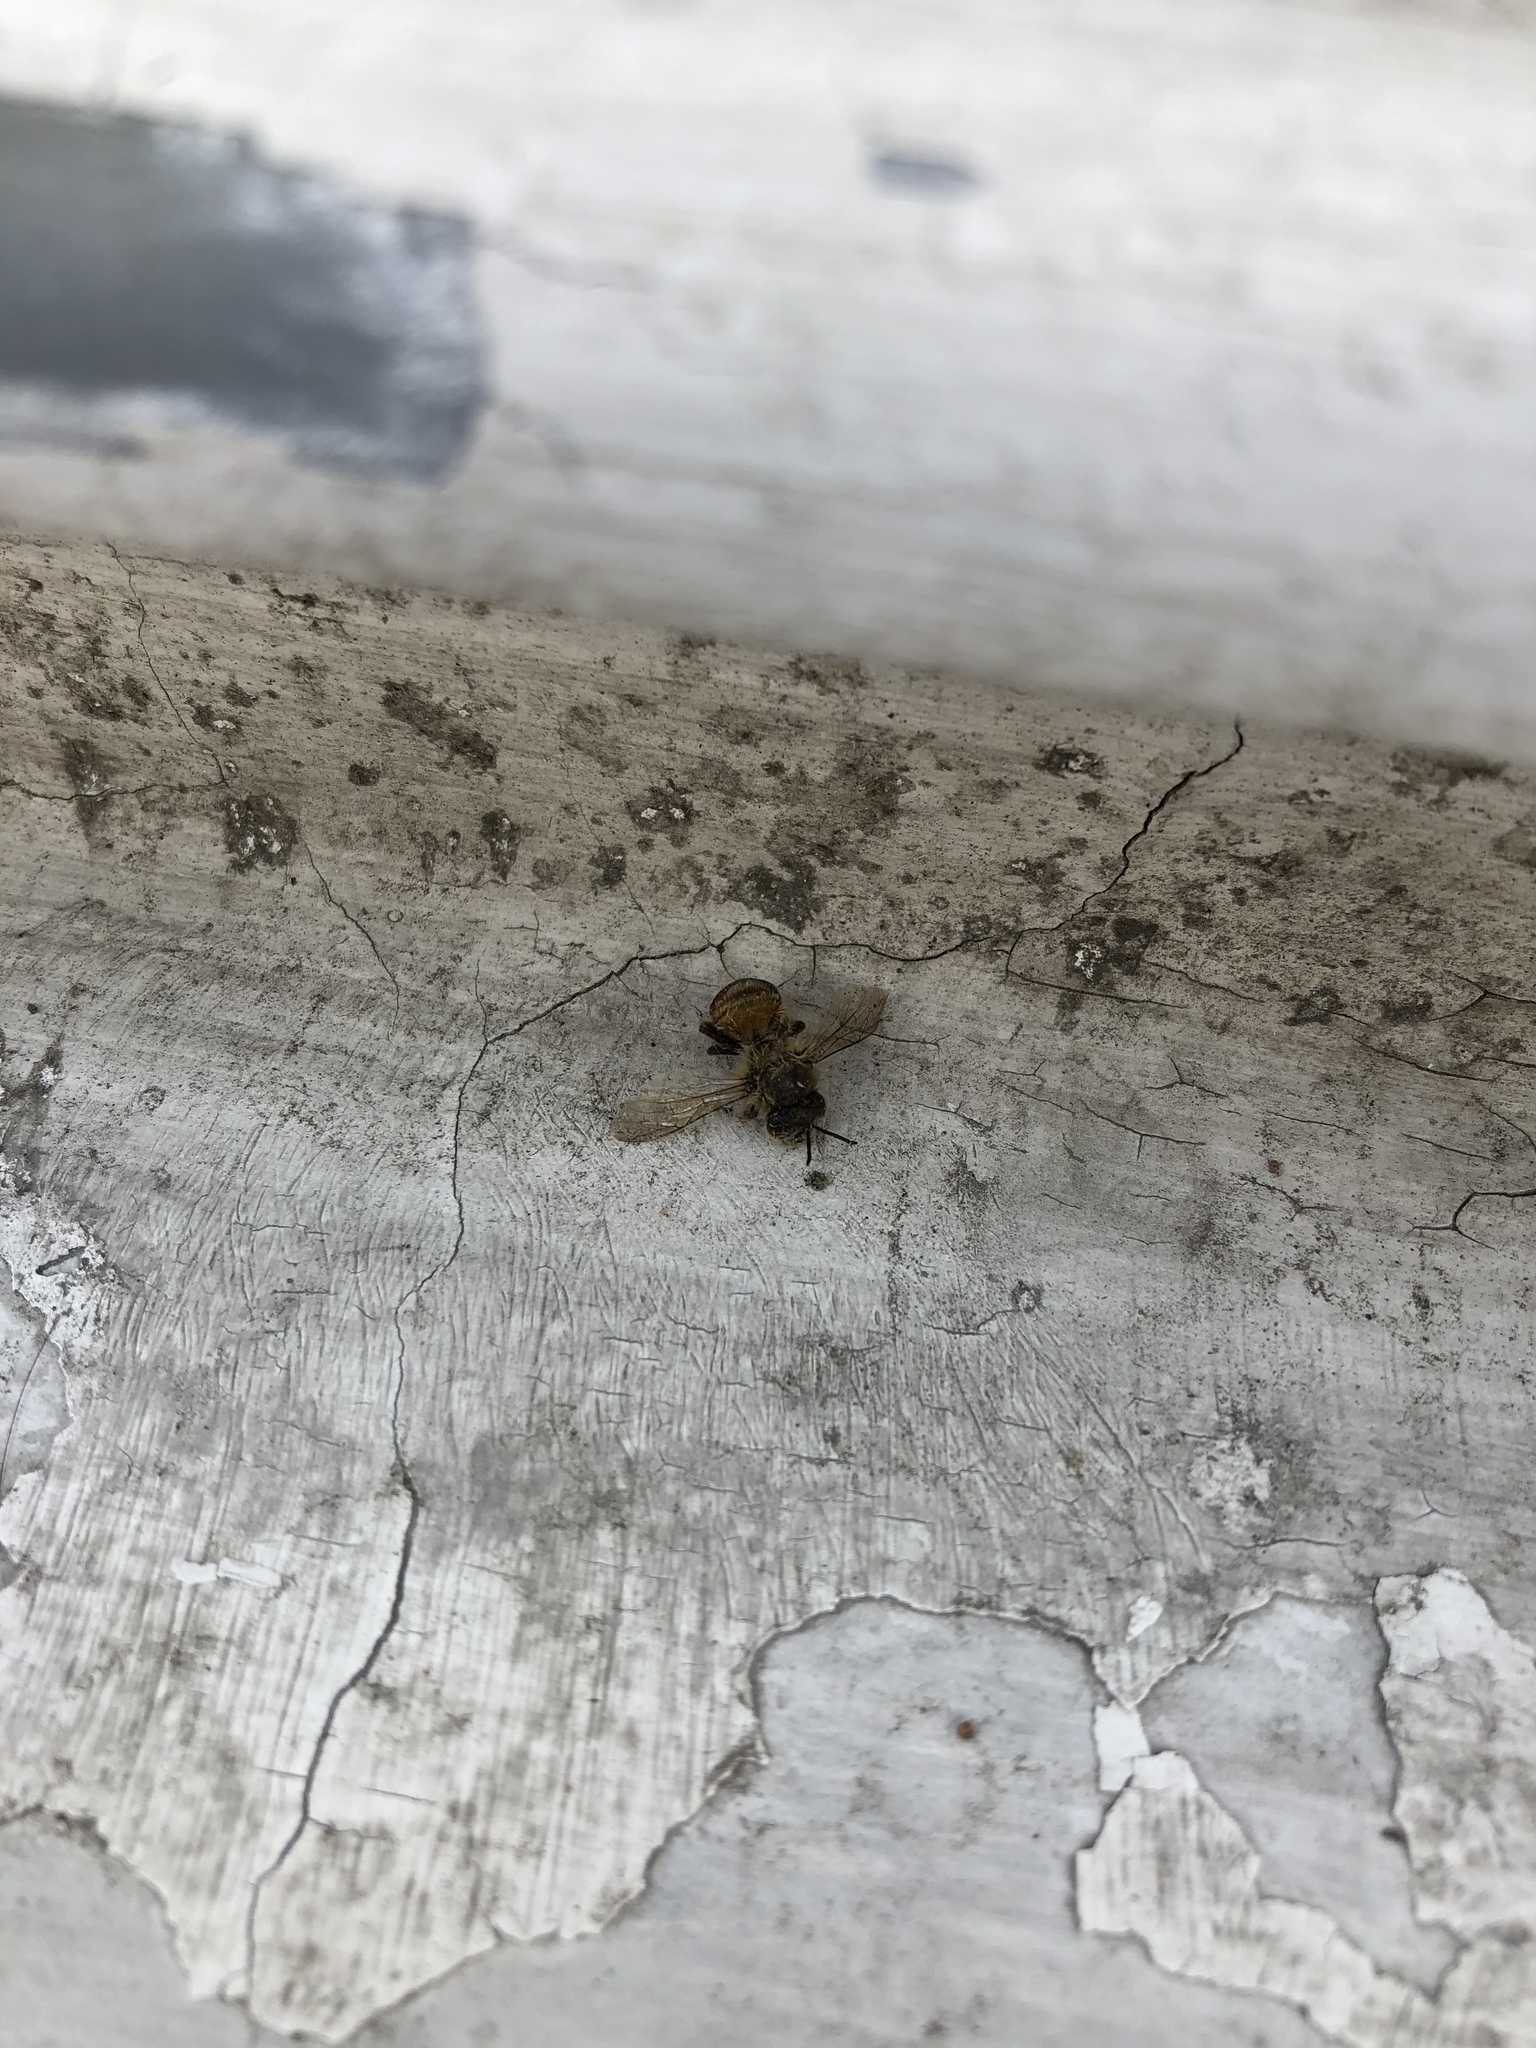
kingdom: Animalia
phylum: Arthropoda
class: Insecta
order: Hymenoptera
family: Apidae
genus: Apis
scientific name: Apis mellifera
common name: Honey bee
